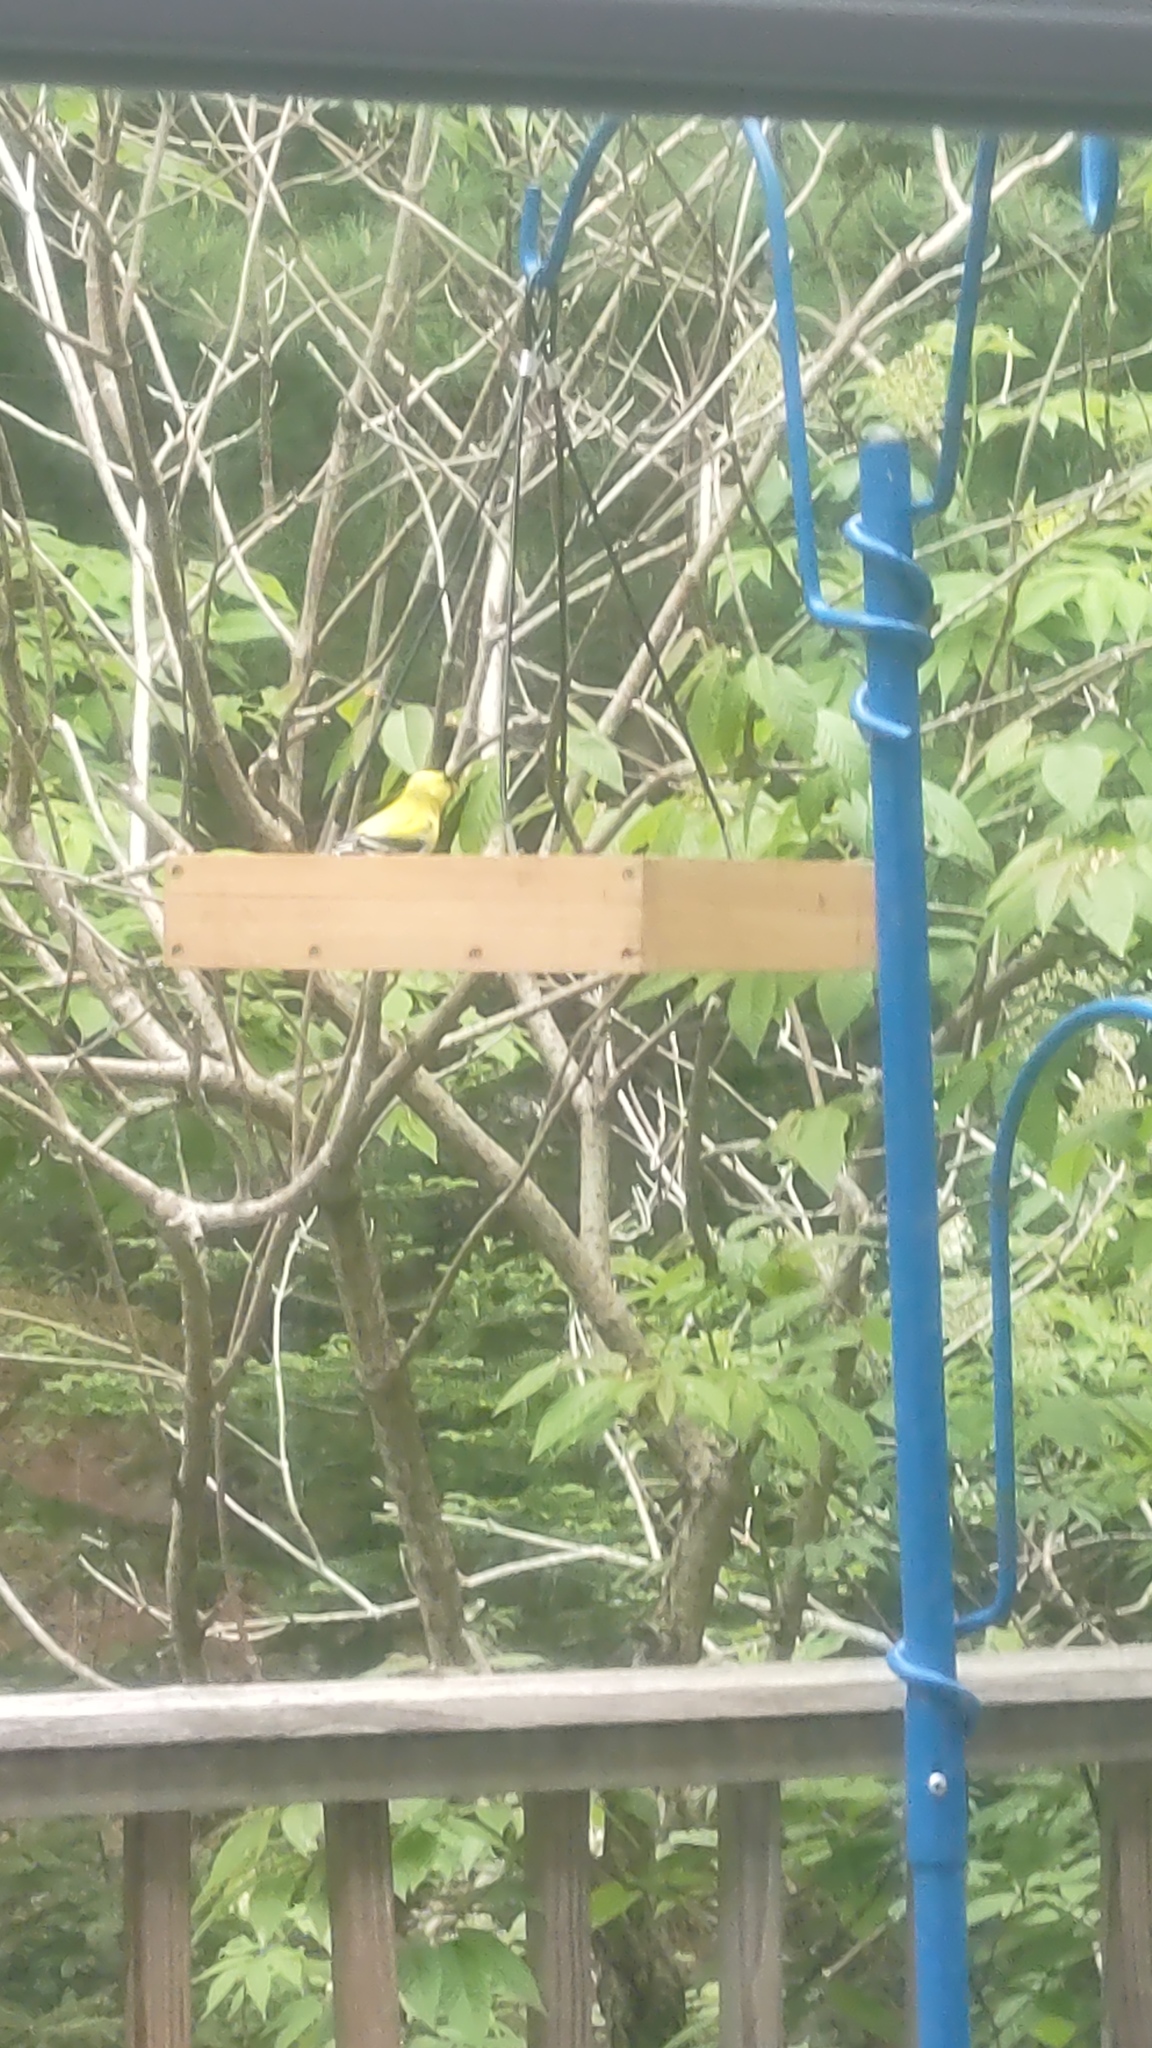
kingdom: Animalia
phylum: Chordata
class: Aves
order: Passeriformes
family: Fringillidae
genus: Spinus
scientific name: Spinus tristis
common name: American goldfinch
